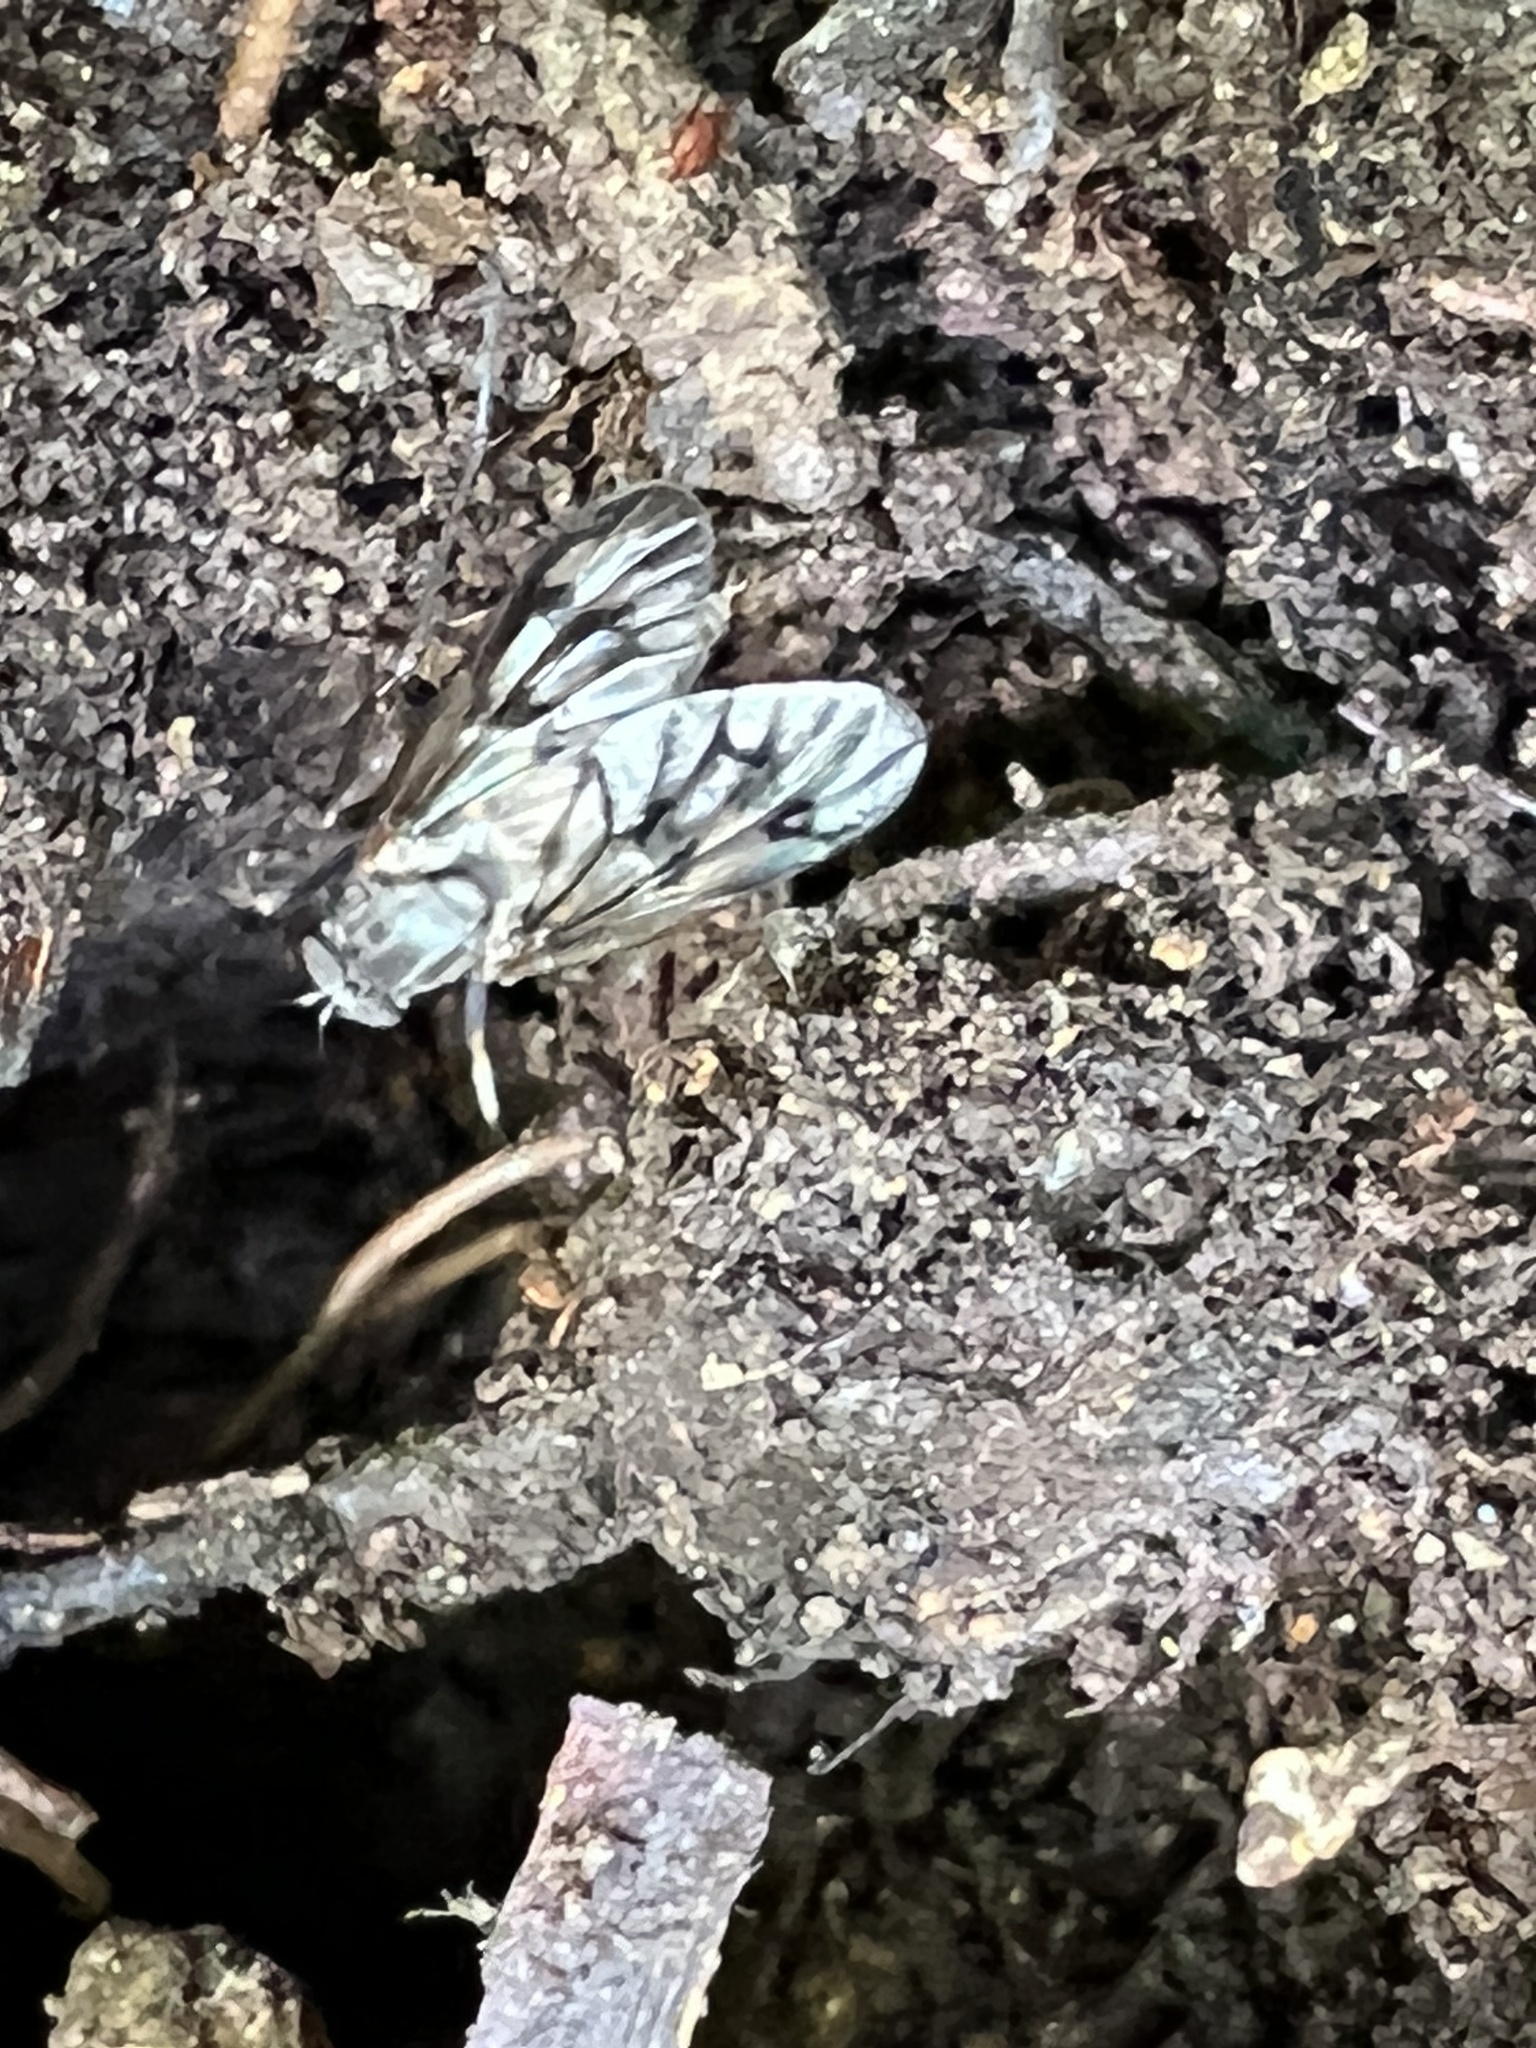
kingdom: Animalia
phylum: Arthropoda
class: Insecta
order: Diptera
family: Rhagionidae
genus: Rhagio
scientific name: Rhagio mystaceus
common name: Common snipe fly
